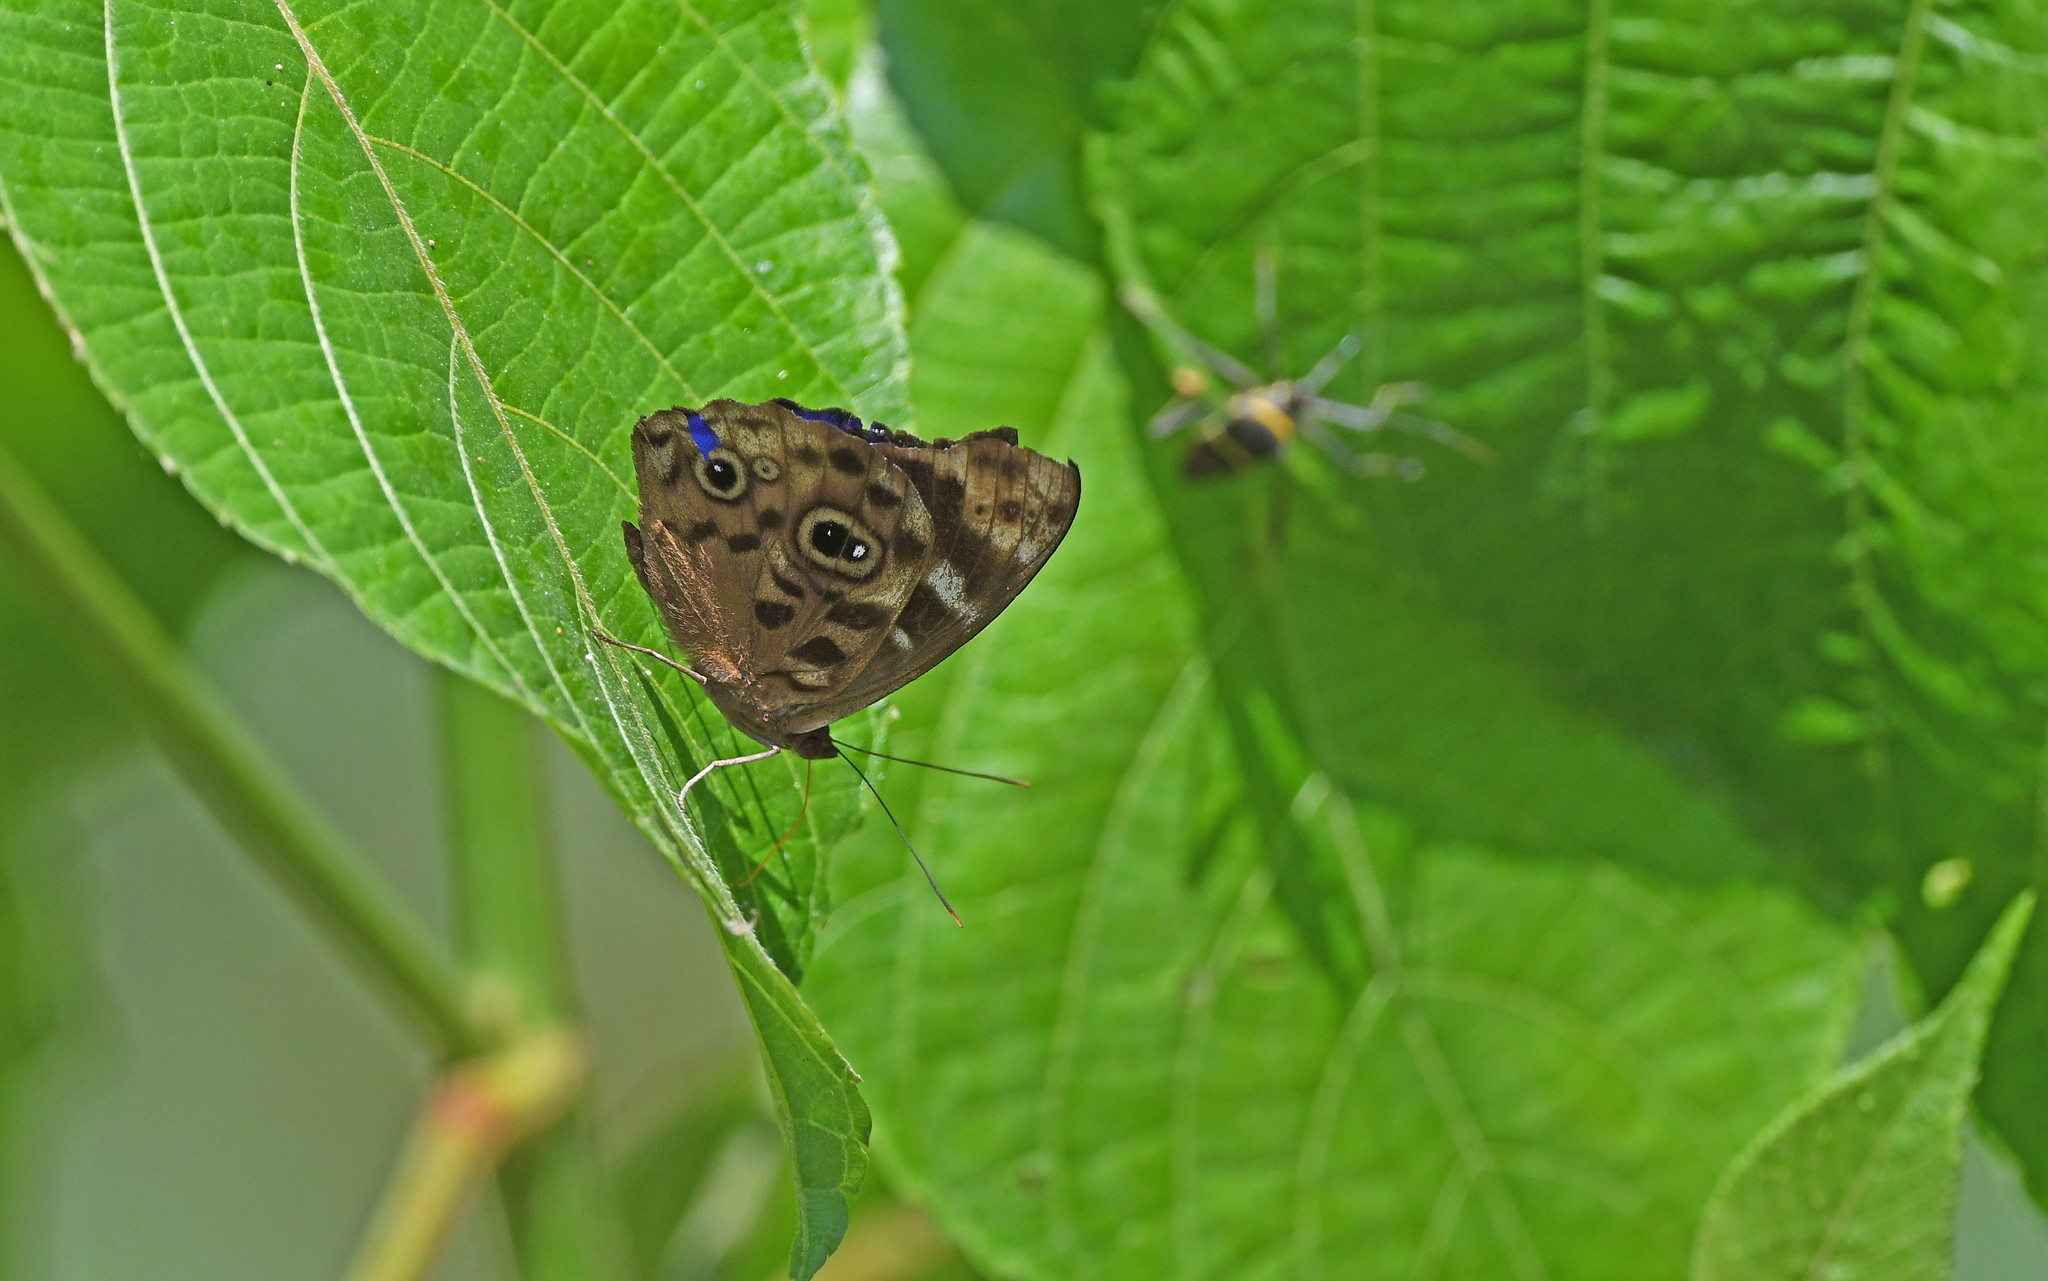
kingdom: Animalia
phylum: Arthropoda
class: Insecta
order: Lepidoptera
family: Nymphalidae
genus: Eunica
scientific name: Eunica alpais
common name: Shining purplewing
